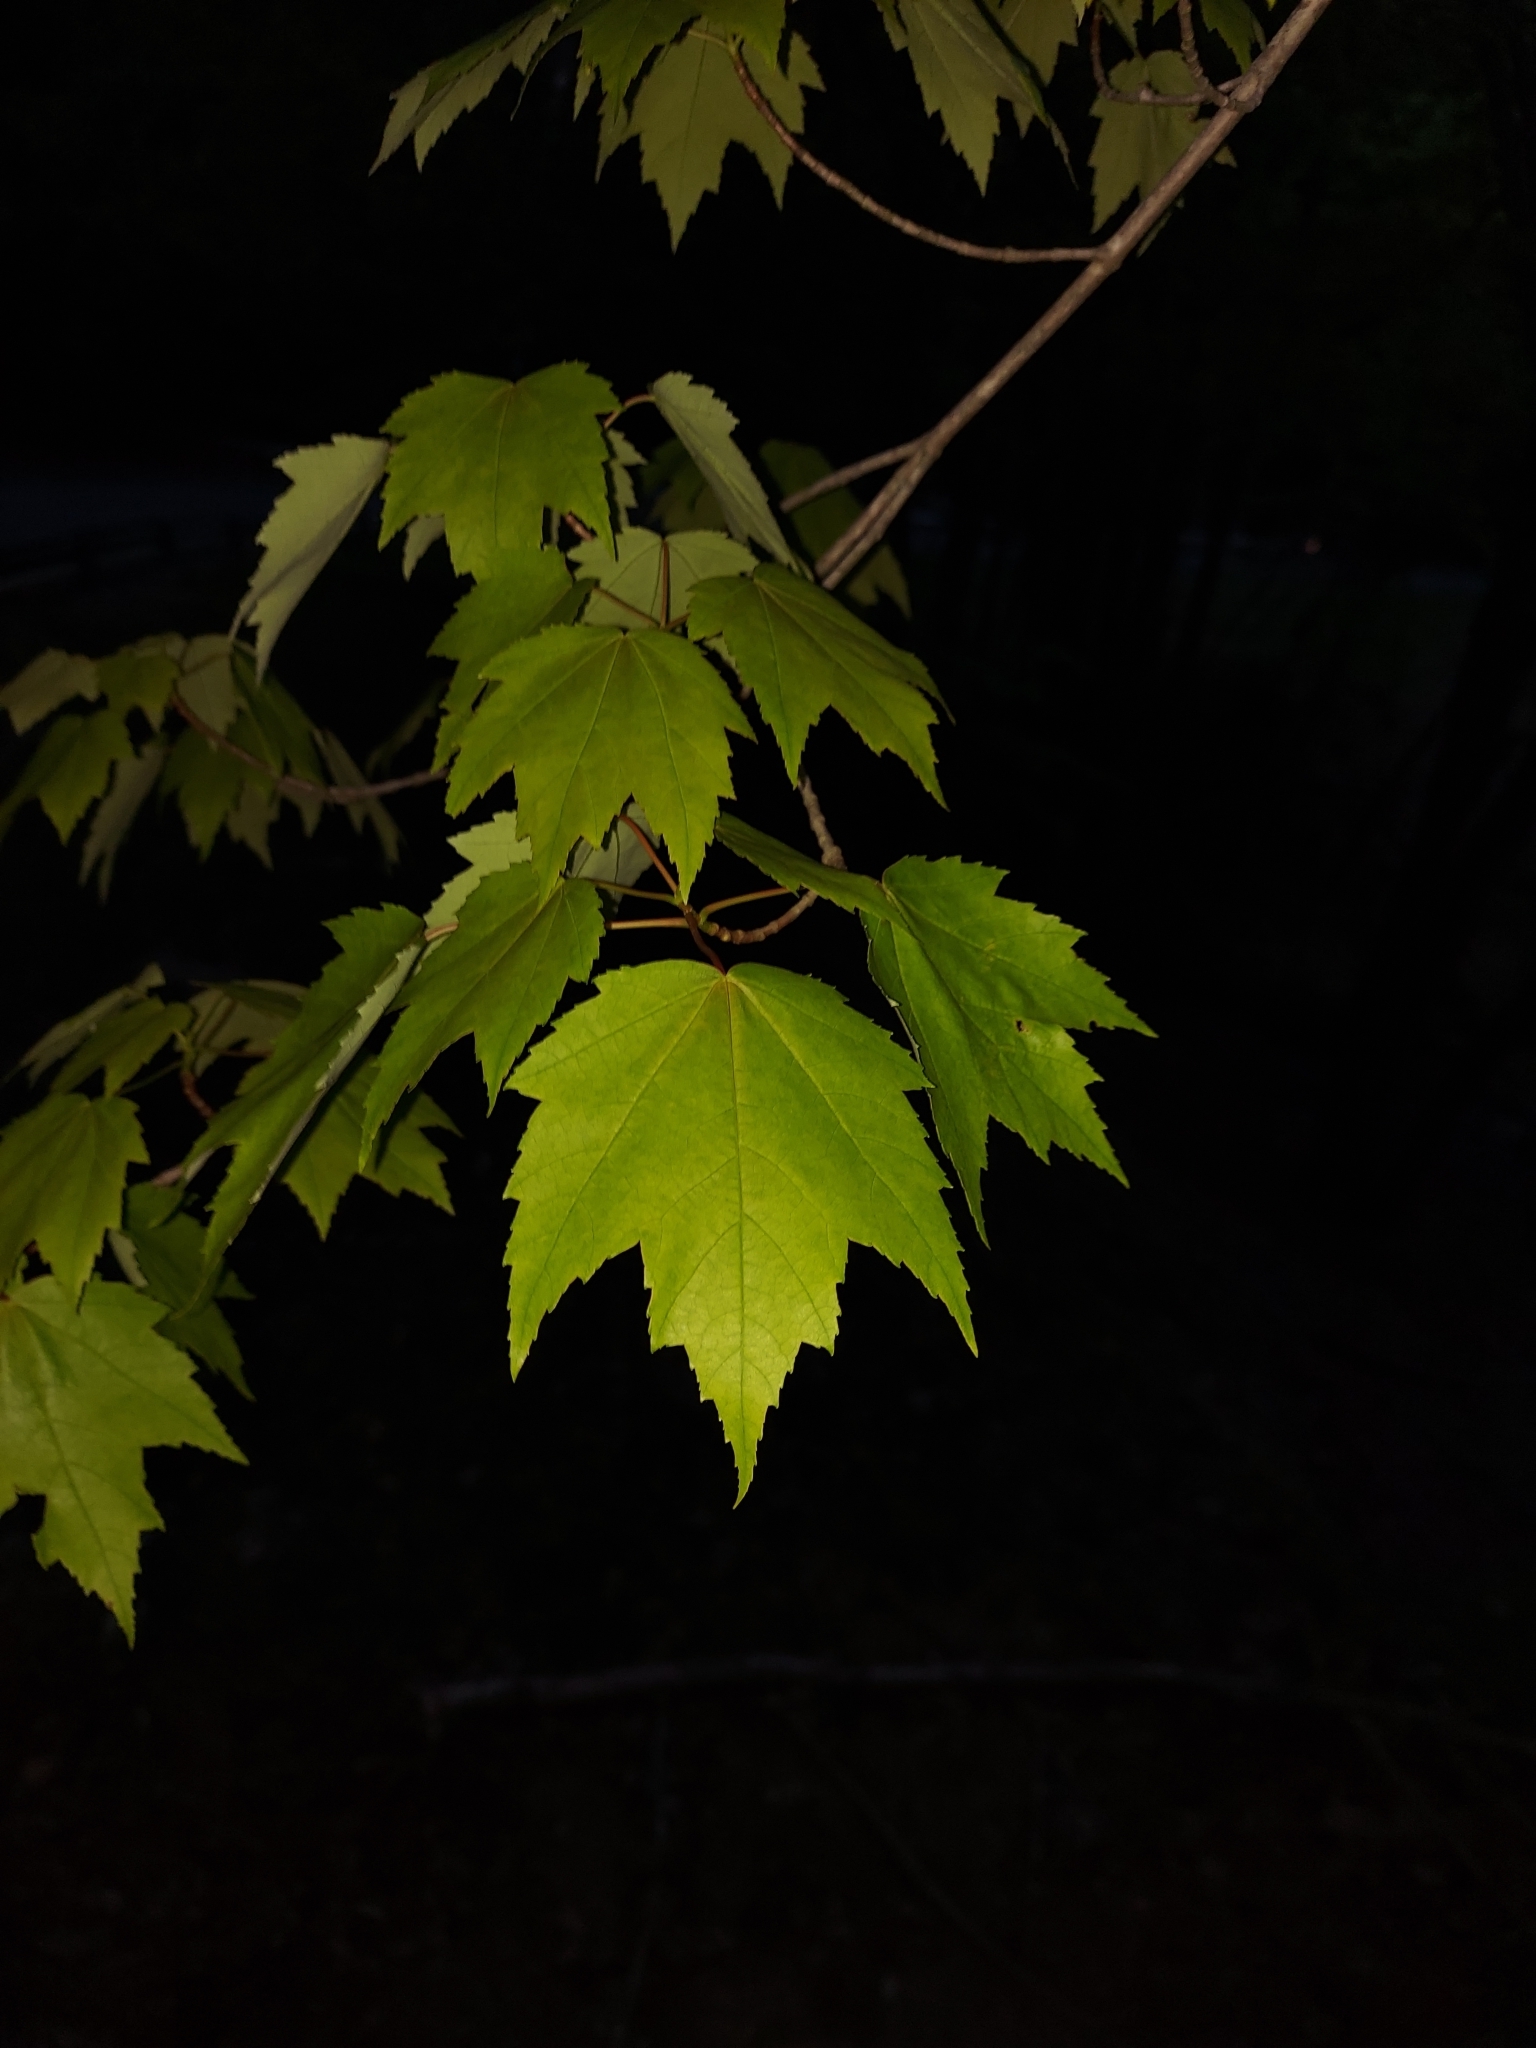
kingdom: Plantae
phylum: Tracheophyta
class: Magnoliopsida
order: Sapindales
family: Sapindaceae
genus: Acer
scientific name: Acer rubrum
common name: Red maple
